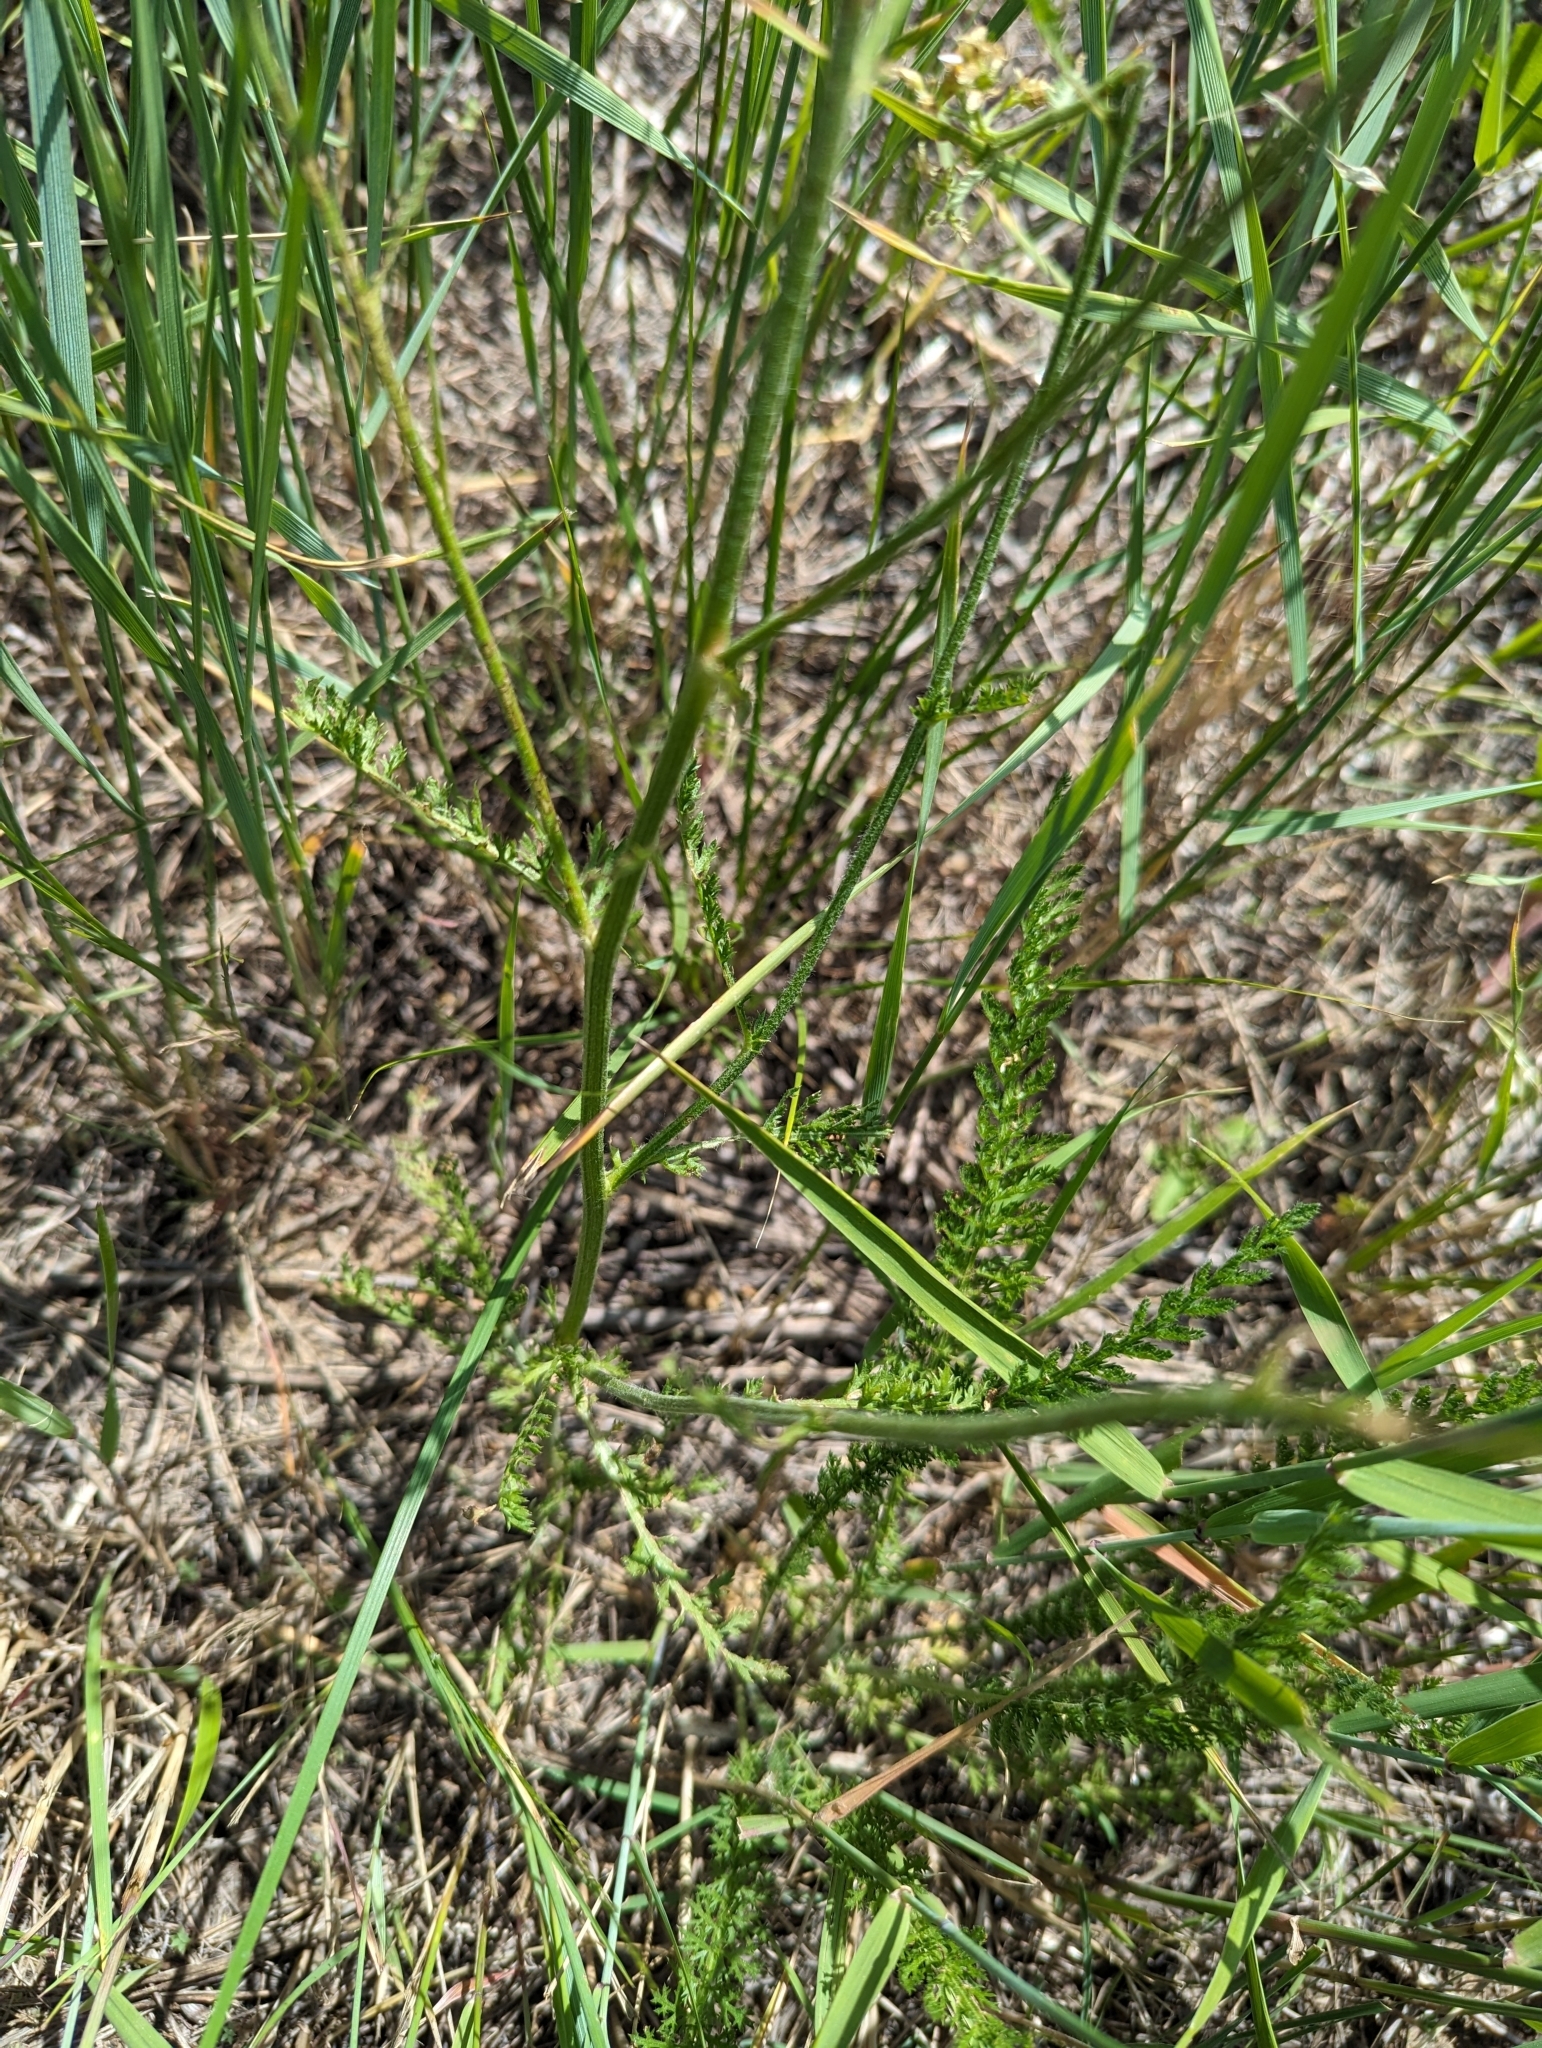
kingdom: Plantae
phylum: Tracheophyta
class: Magnoliopsida
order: Asterales
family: Asteraceae
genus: Achillea
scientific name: Achillea millefolium
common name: Yarrow
